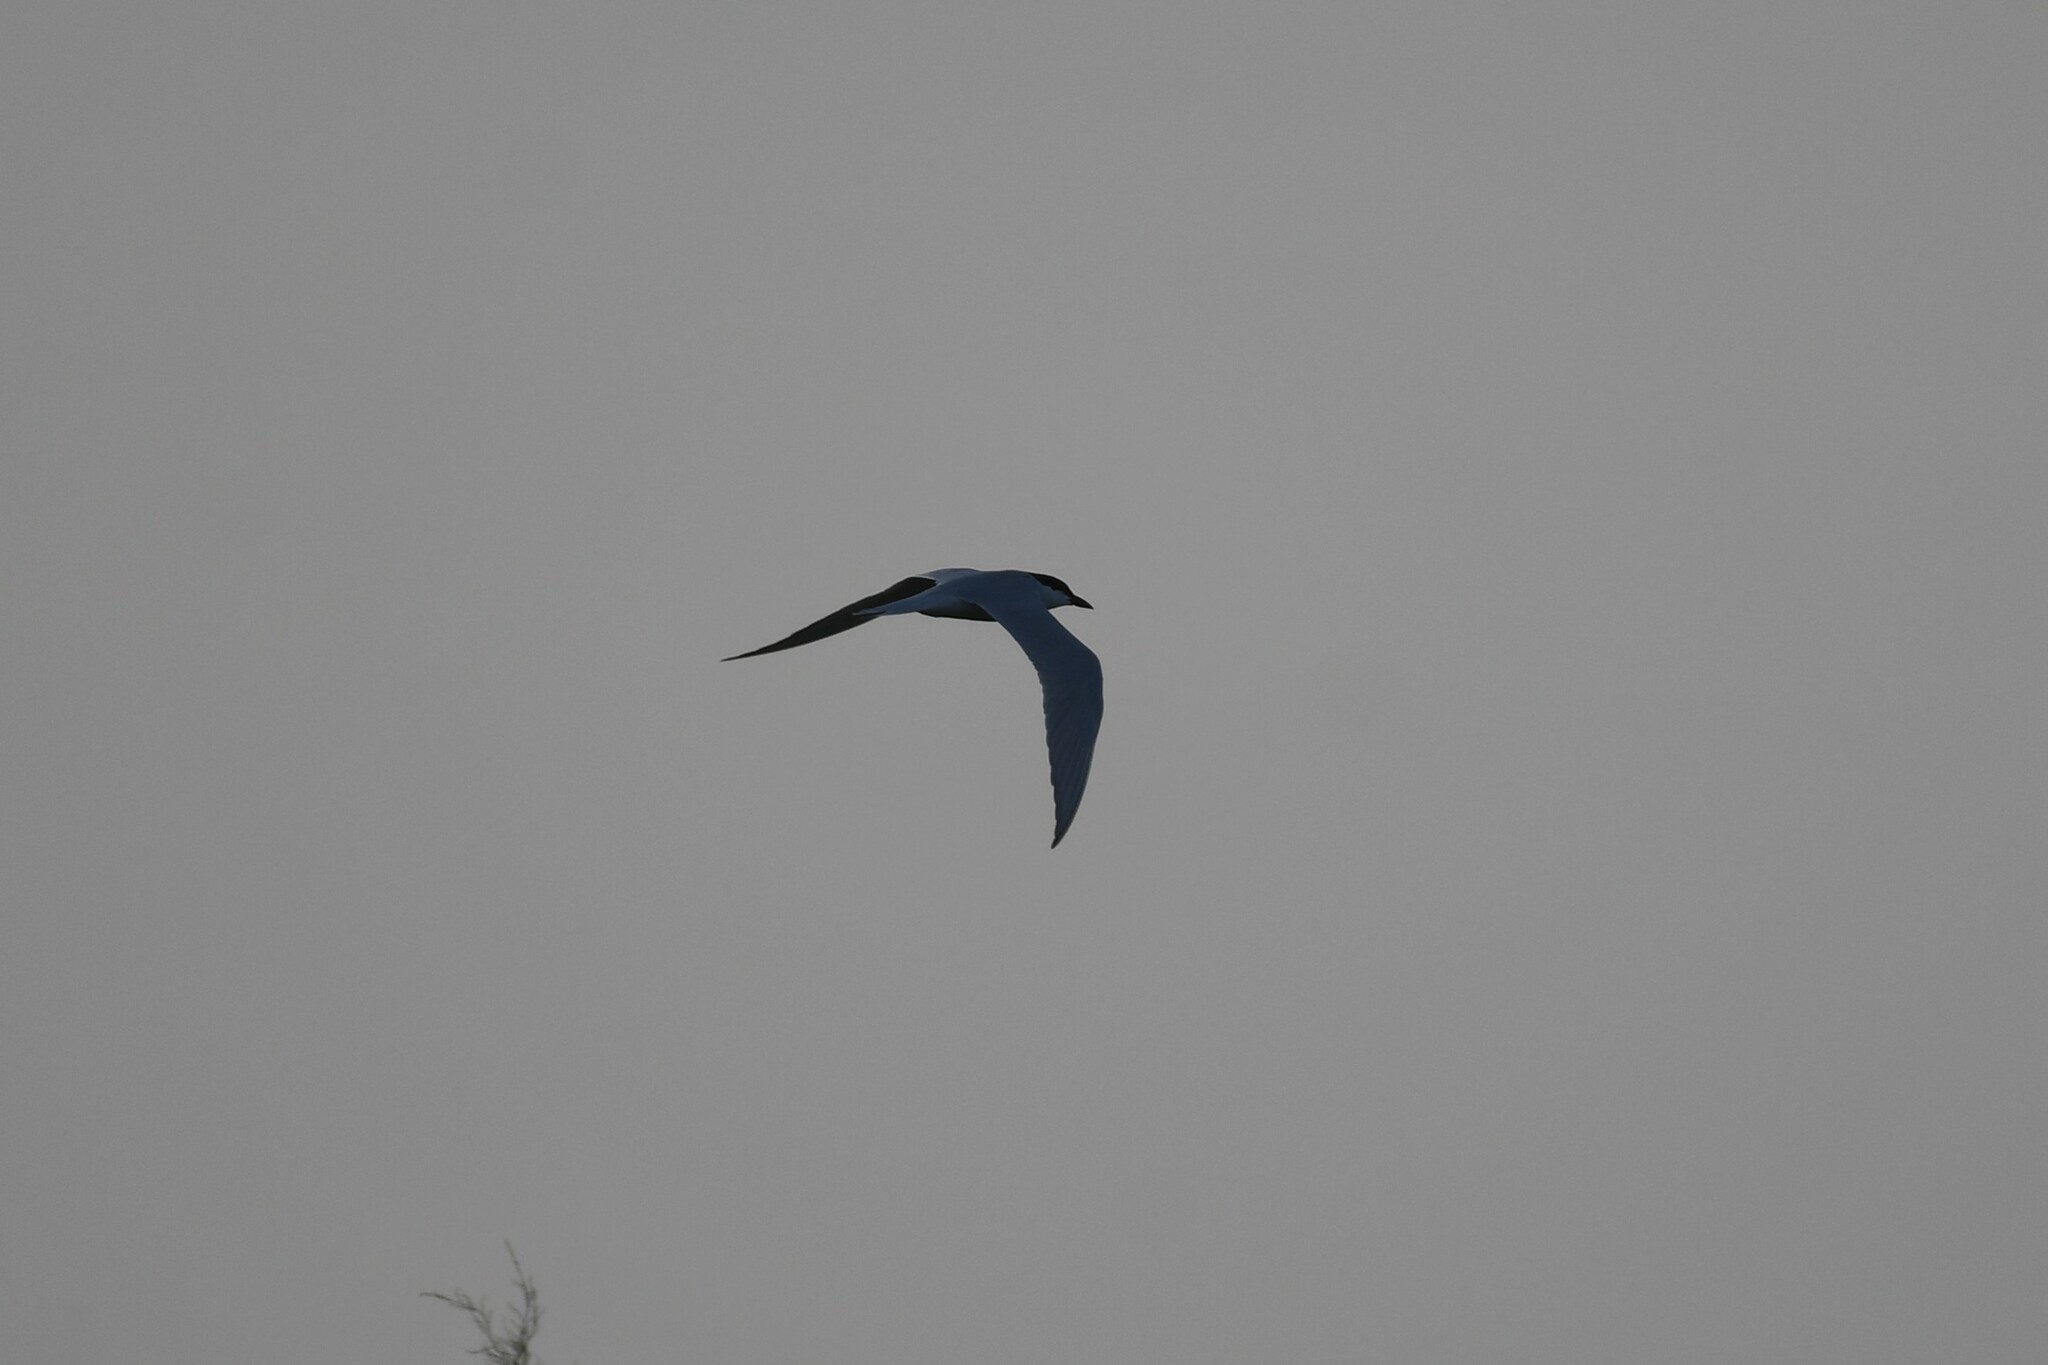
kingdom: Animalia
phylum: Chordata
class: Aves
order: Charadriiformes
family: Laridae
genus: Gelochelidon
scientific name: Gelochelidon nilotica
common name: Gull-billed tern
